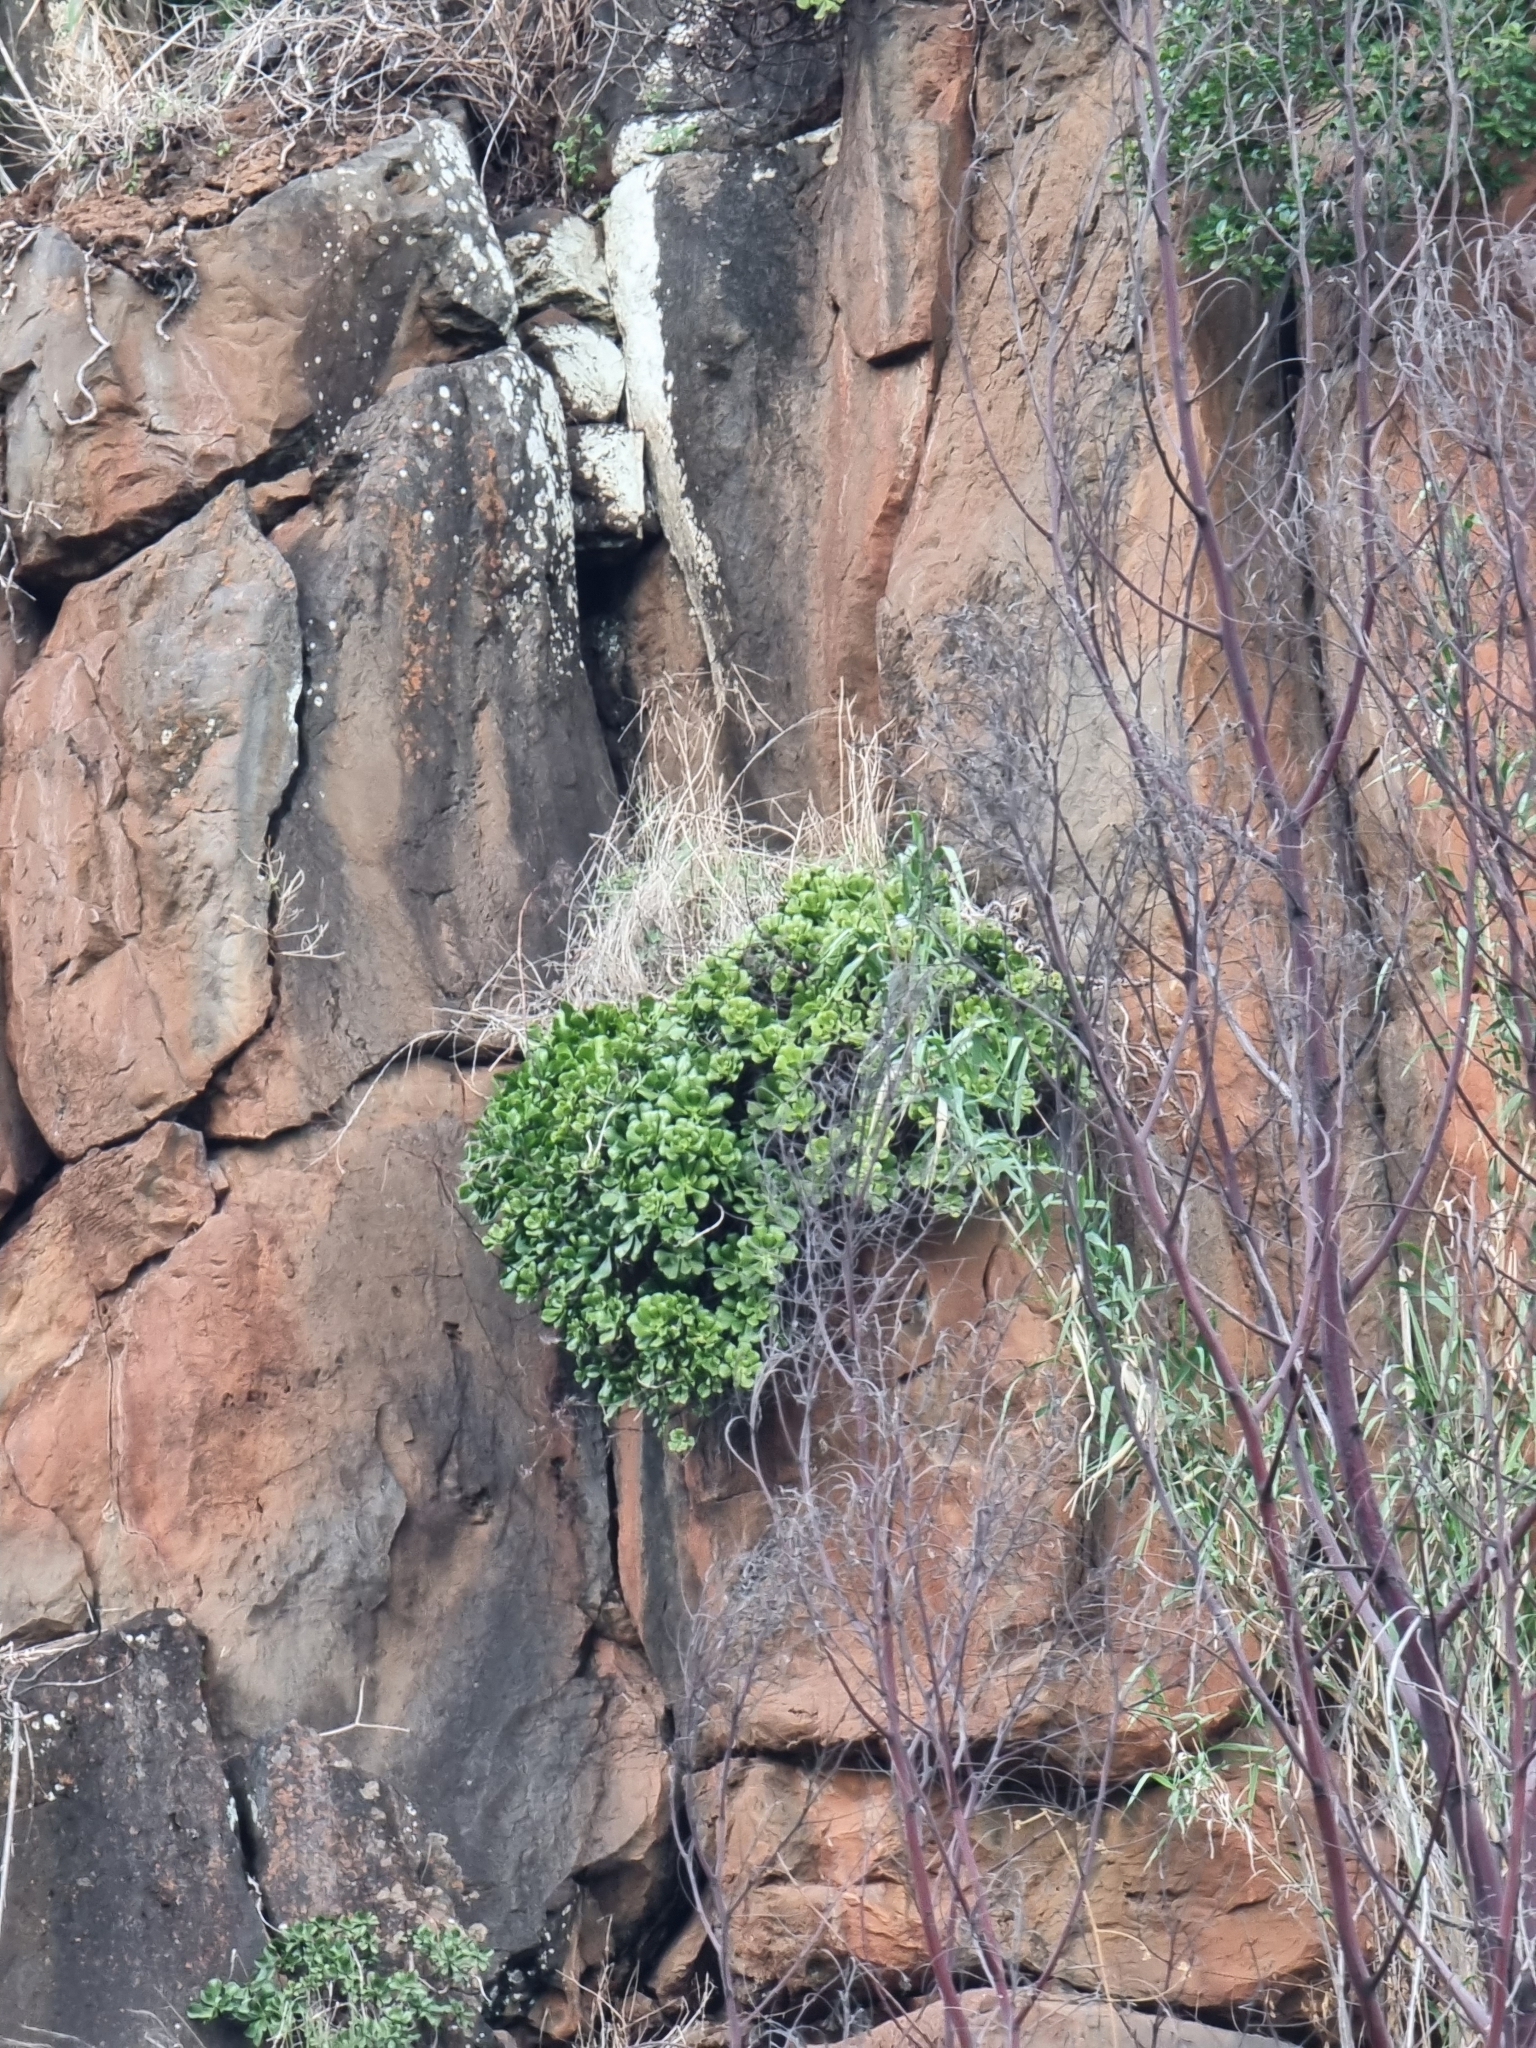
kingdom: Plantae
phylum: Tracheophyta
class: Magnoliopsida
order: Saxifragales
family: Crassulaceae
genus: Aeonium
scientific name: Aeonium glutinosum
